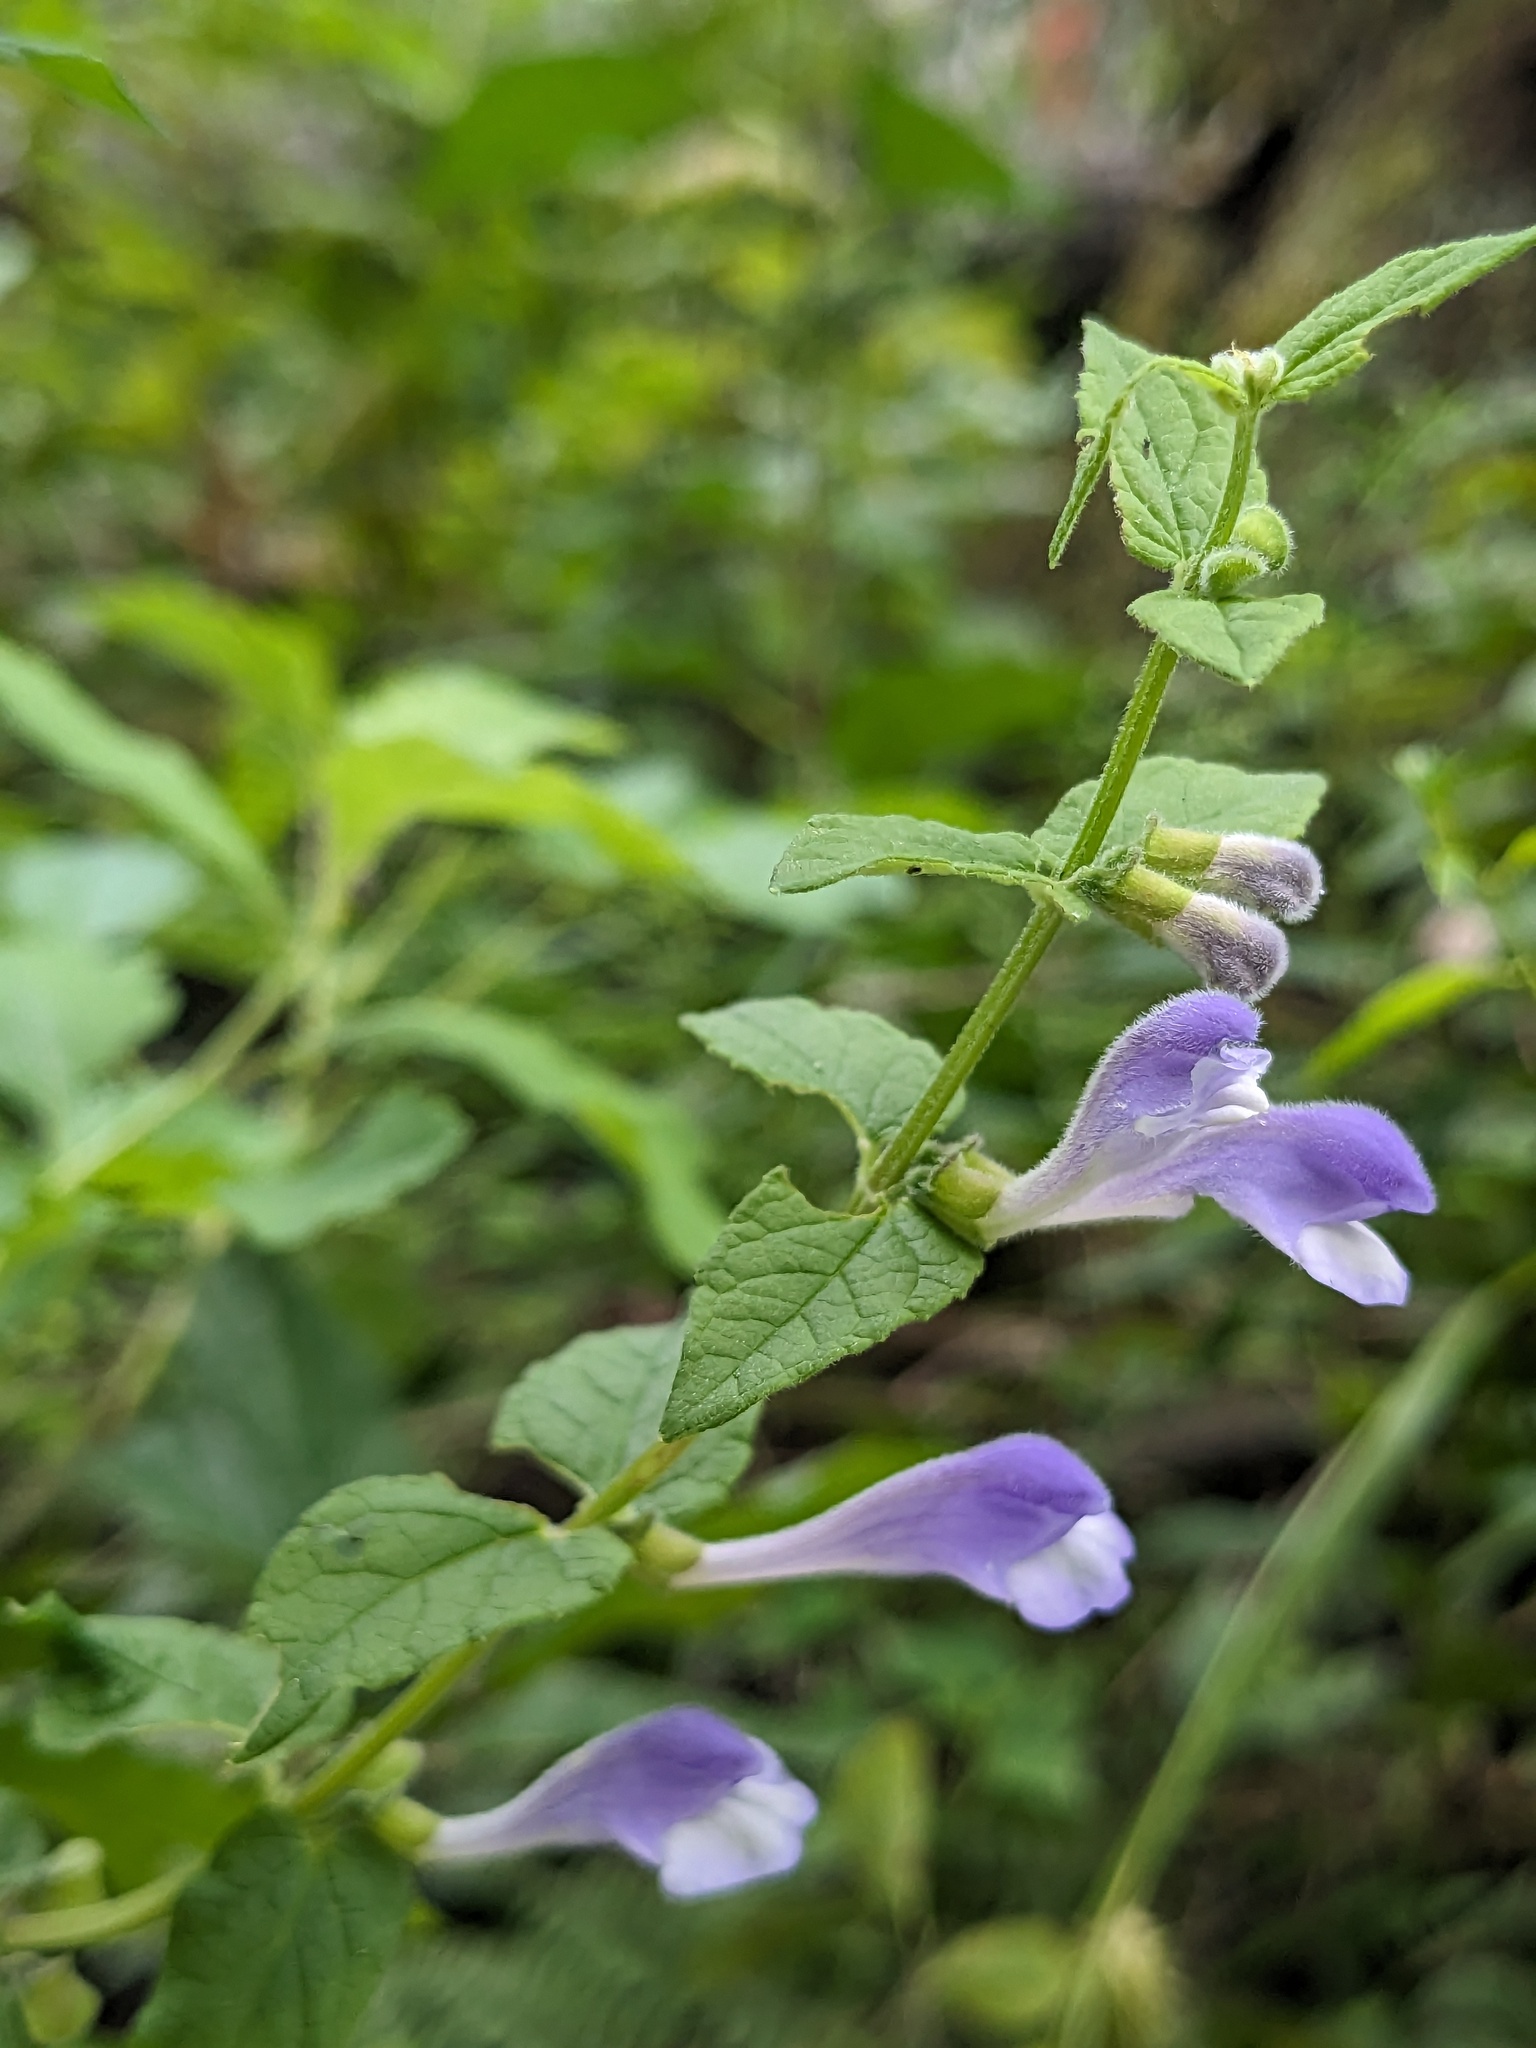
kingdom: Plantae
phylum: Tracheophyta
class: Magnoliopsida
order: Lamiales
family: Lamiaceae
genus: Scutellaria
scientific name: Scutellaria galericulata
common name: Skullcap
